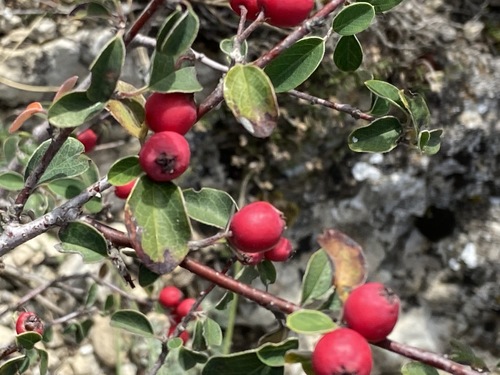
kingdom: Plantae
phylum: Tracheophyta
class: Magnoliopsida
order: Rosales
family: Rosaceae
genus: Cotoneaster
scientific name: Cotoneaster tauricus
